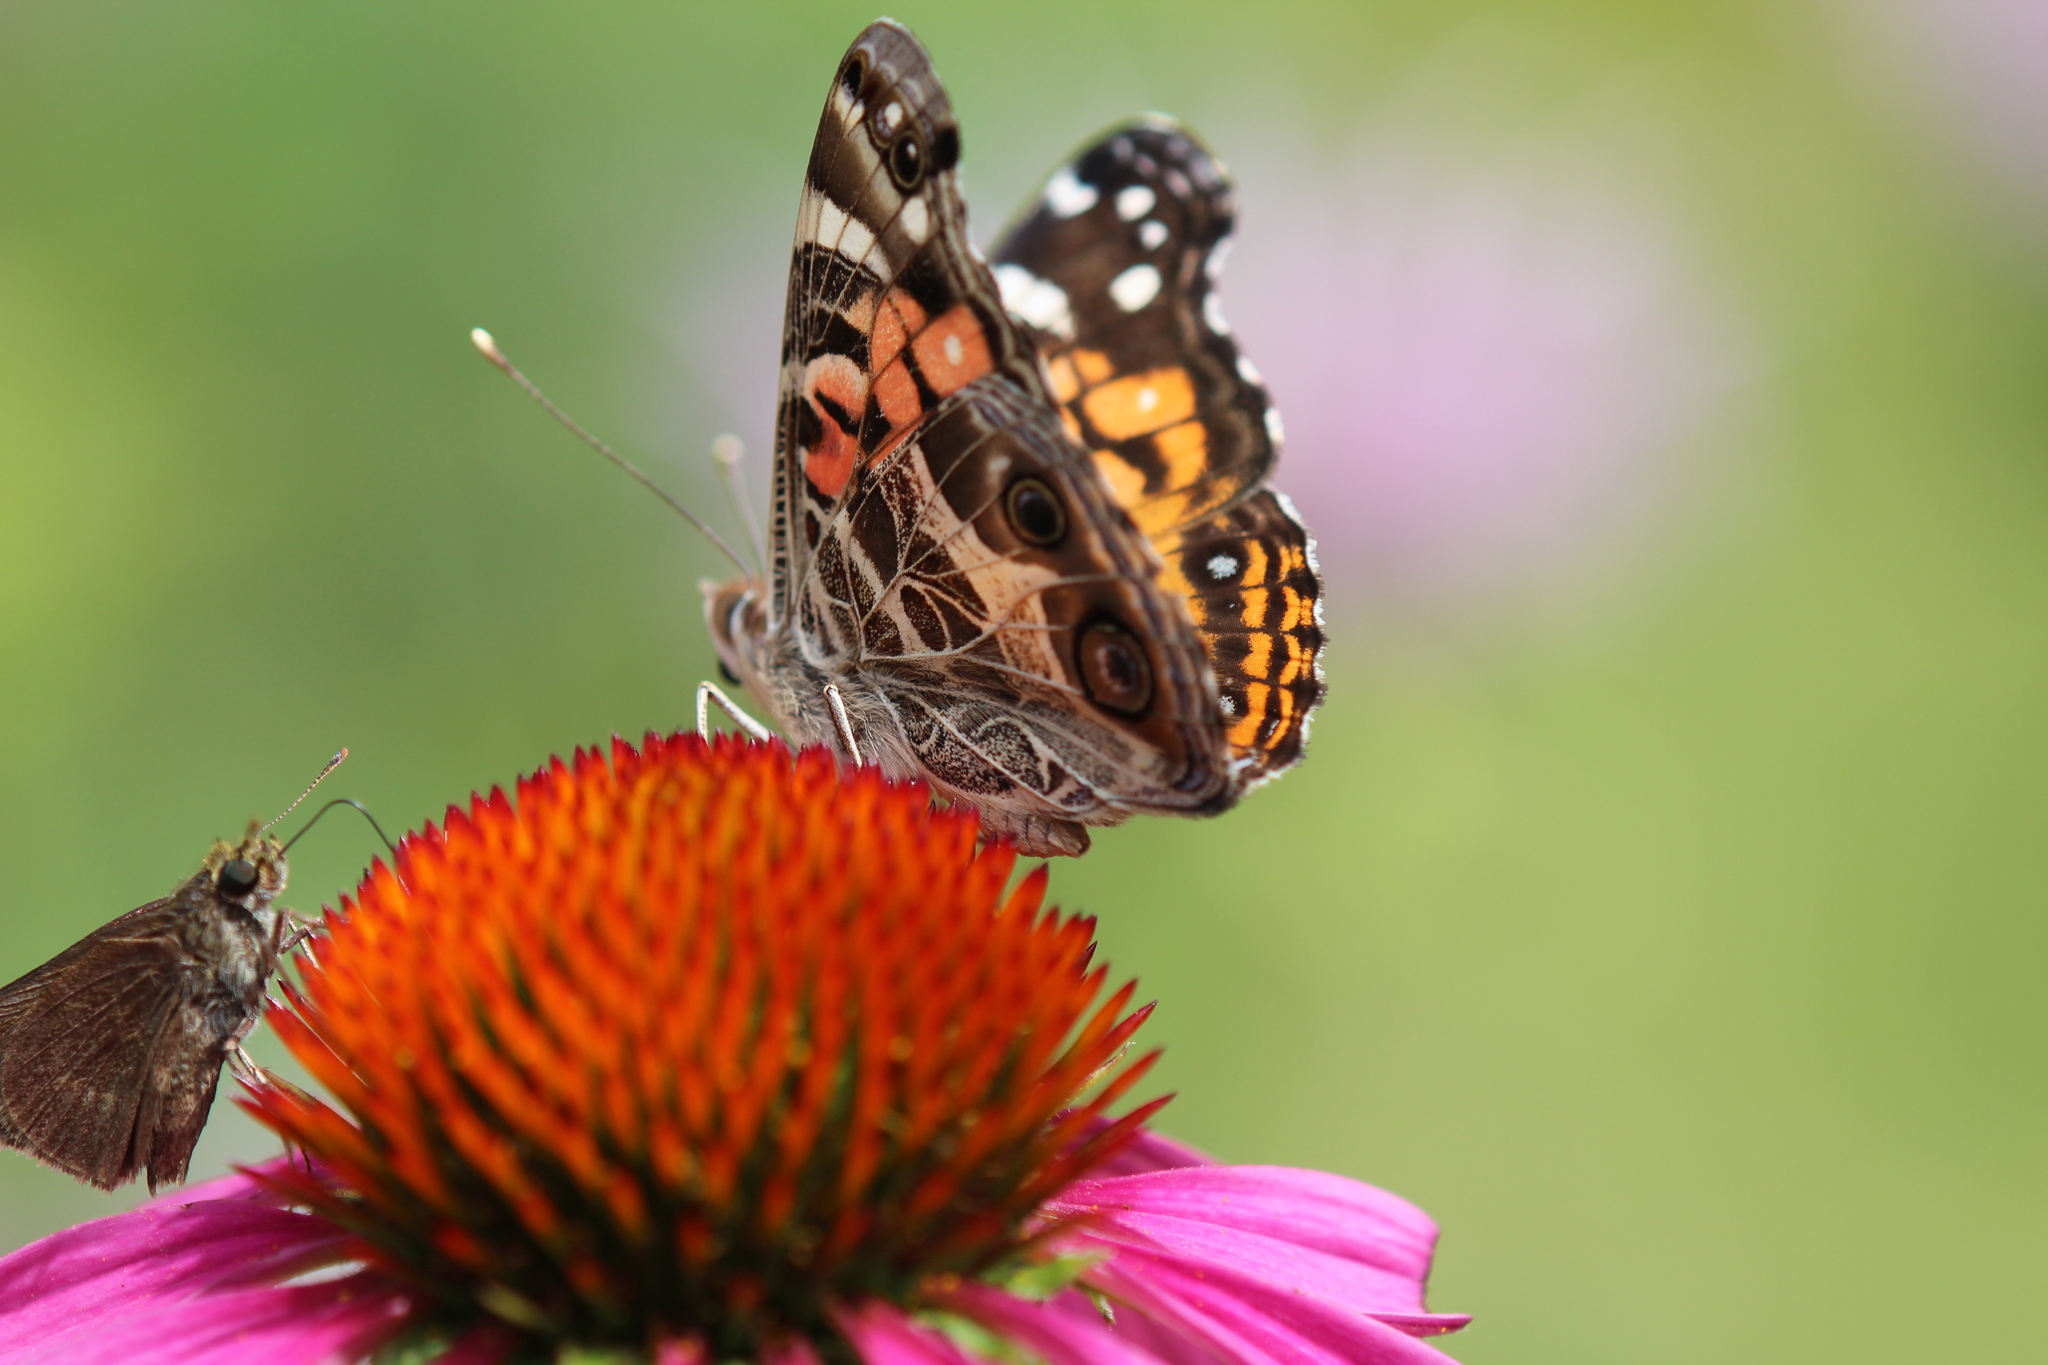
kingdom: Animalia
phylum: Arthropoda
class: Insecta
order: Lepidoptera
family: Nymphalidae
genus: Vanessa
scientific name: Vanessa virginiensis
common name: American lady
